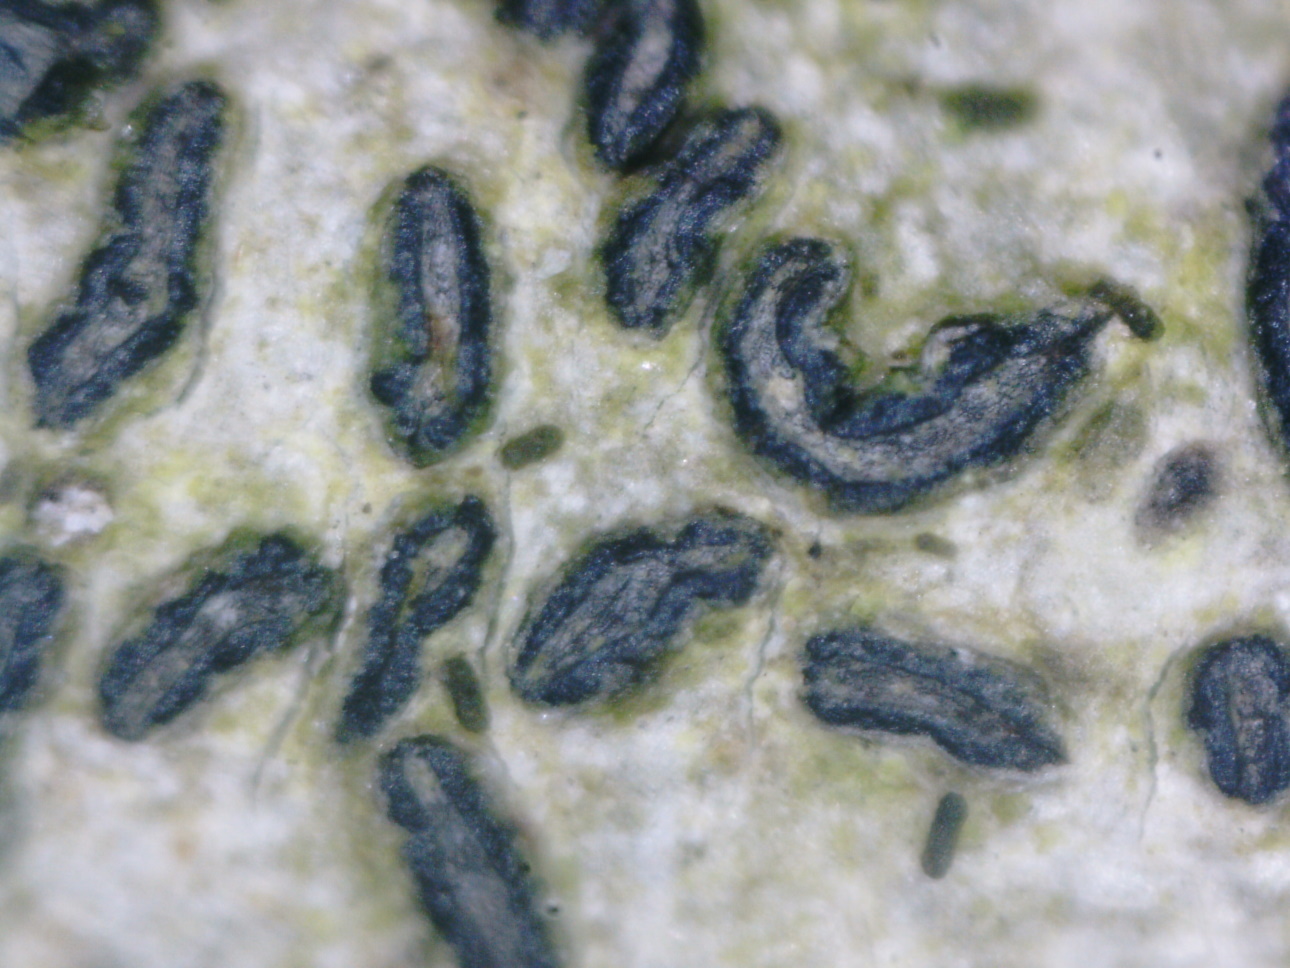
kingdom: Fungi
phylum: Ascomycota
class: Lecanoromycetes
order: Ostropales
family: Graphidaceae
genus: Graphis
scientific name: Graphis scripta
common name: Script lichen
